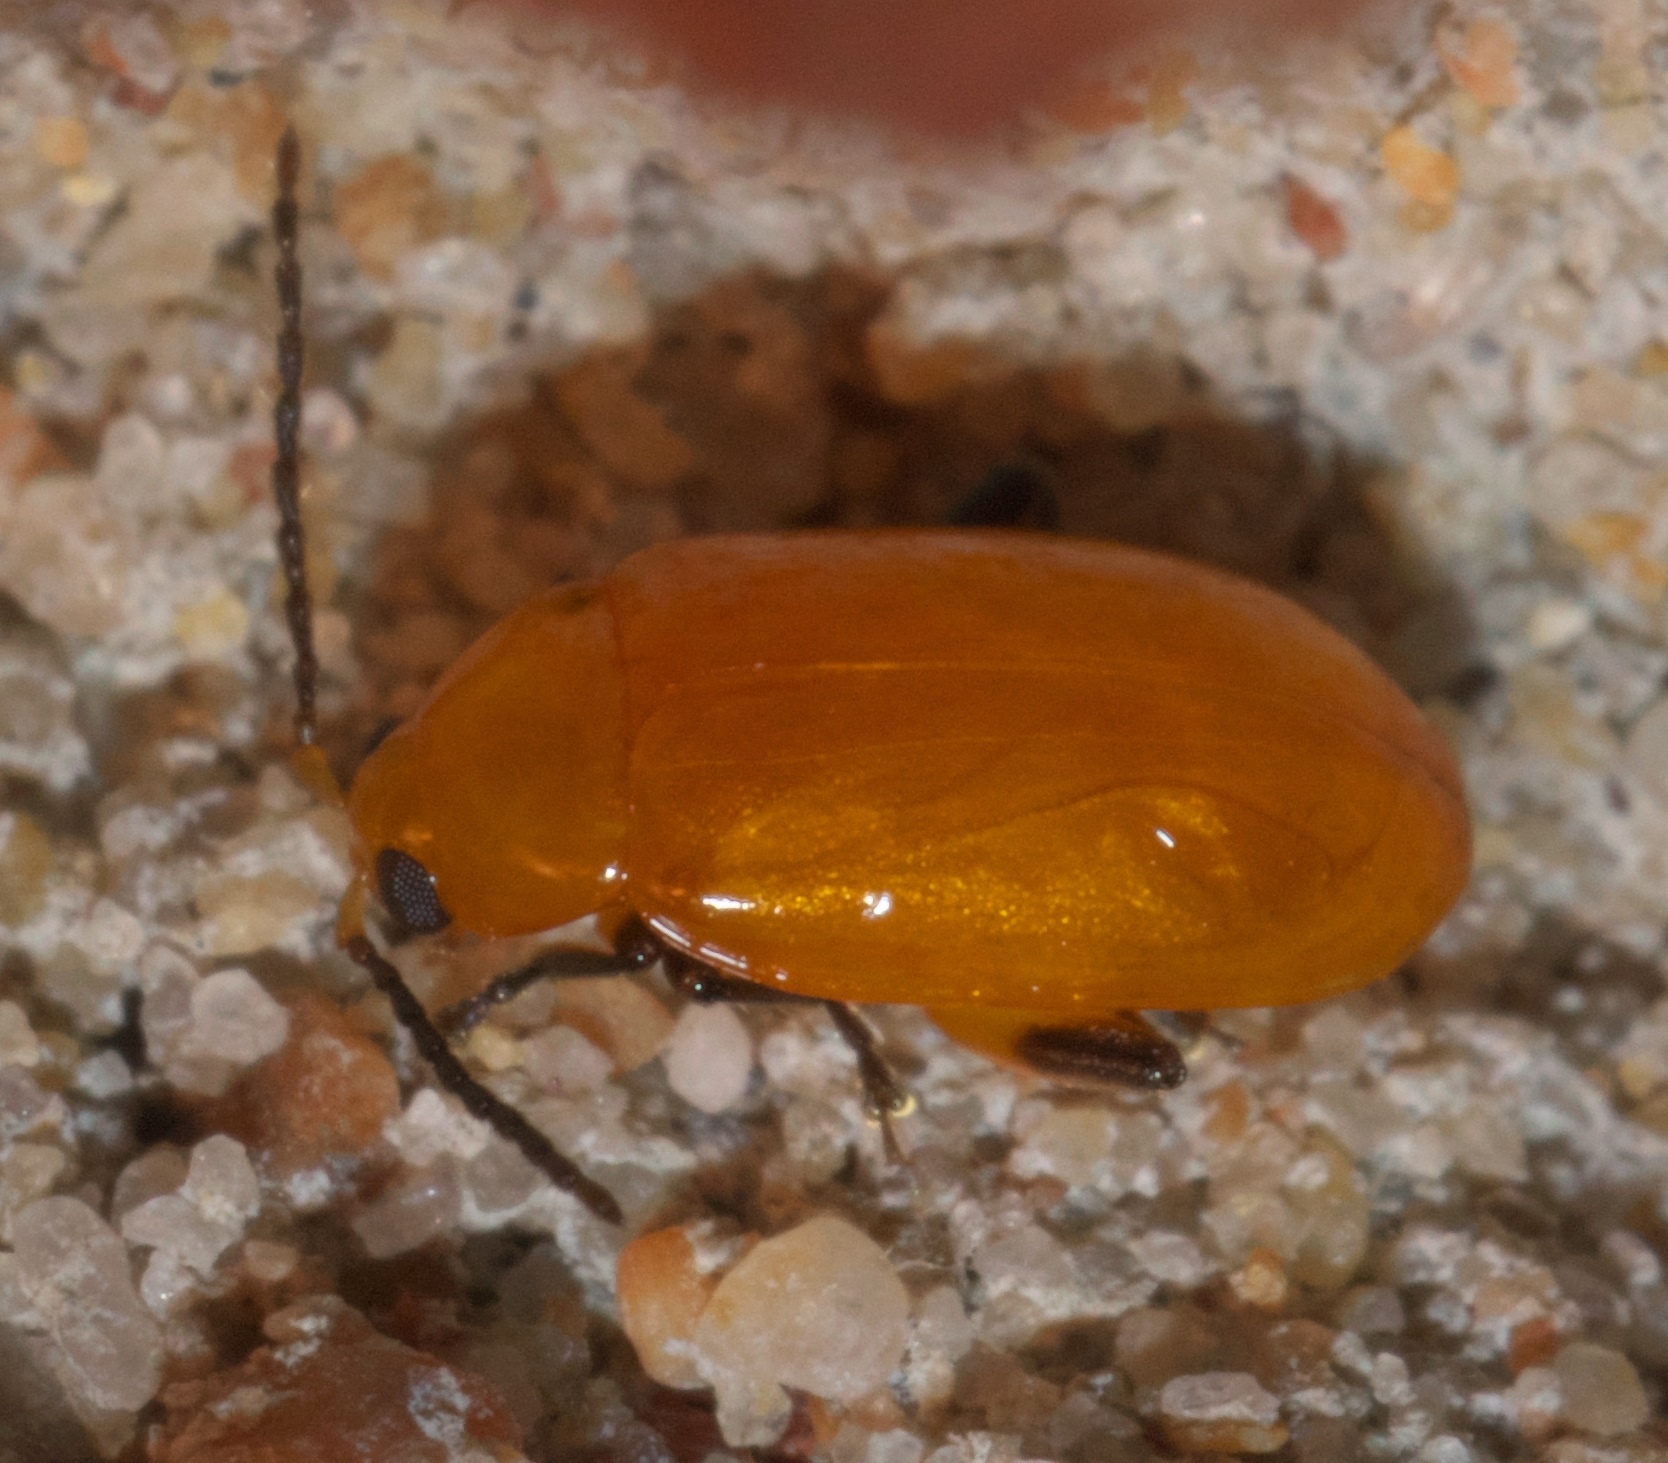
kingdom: Animalia
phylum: Arthropoda
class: Insecta
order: Coleoptera
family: Chrysomelidae
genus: Parchicola
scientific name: Parchicola tibialis
